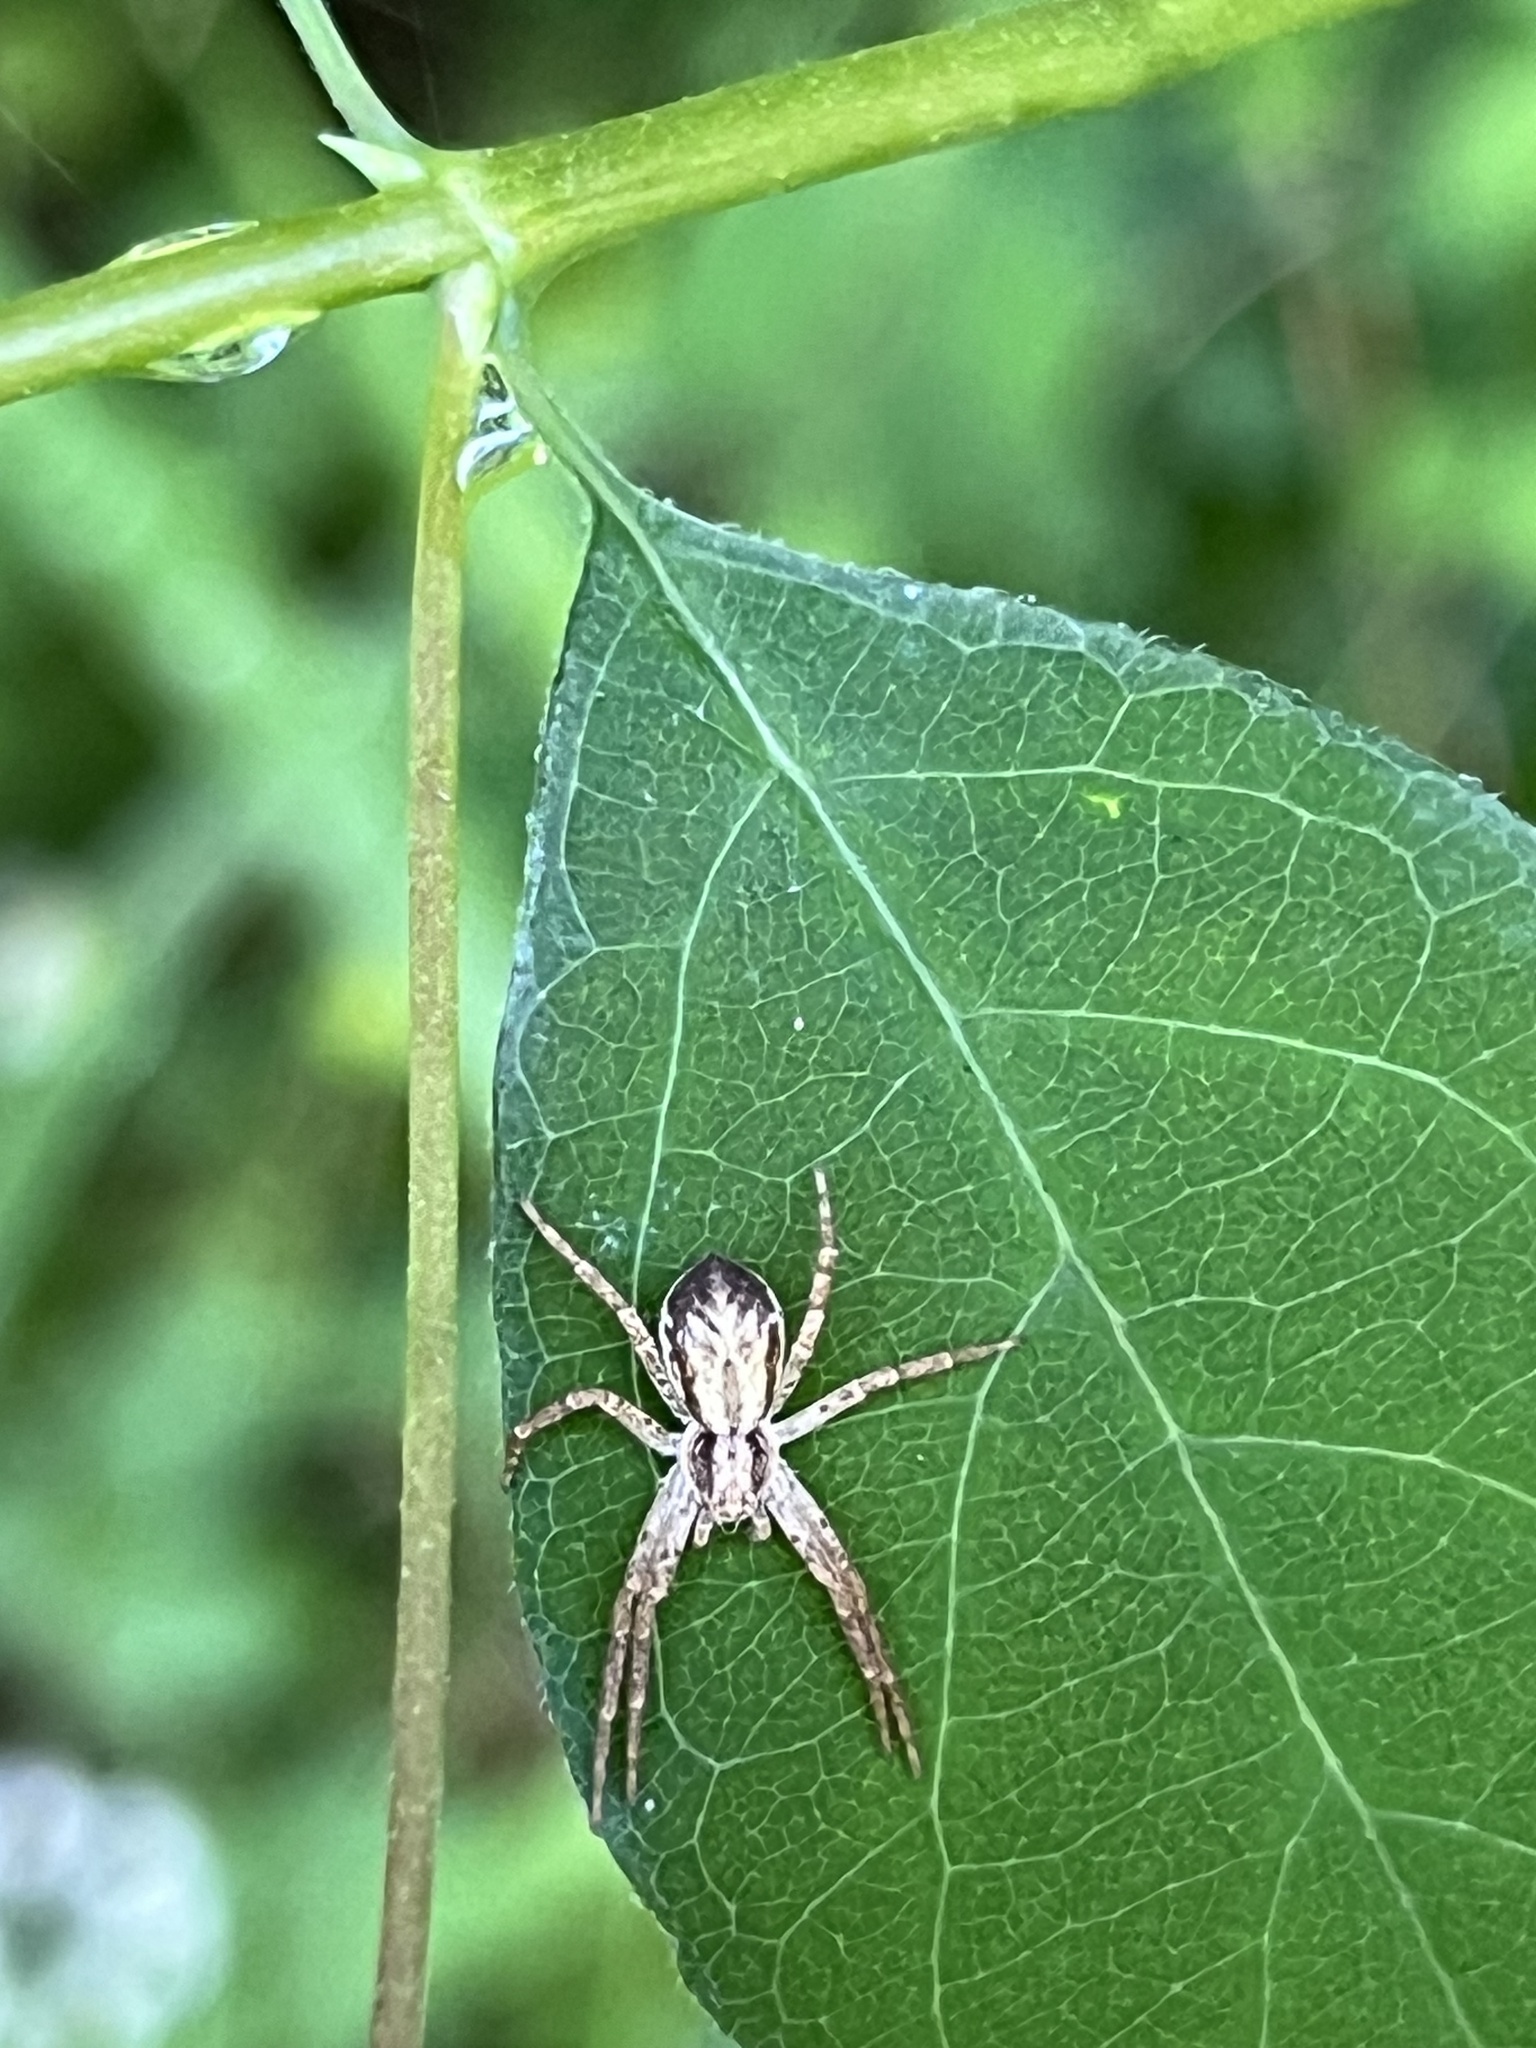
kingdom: Animalia
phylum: Arthropoda
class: Arachnida
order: Araneae
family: Philodromidae
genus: Philodromus
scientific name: Philodromus dispar
